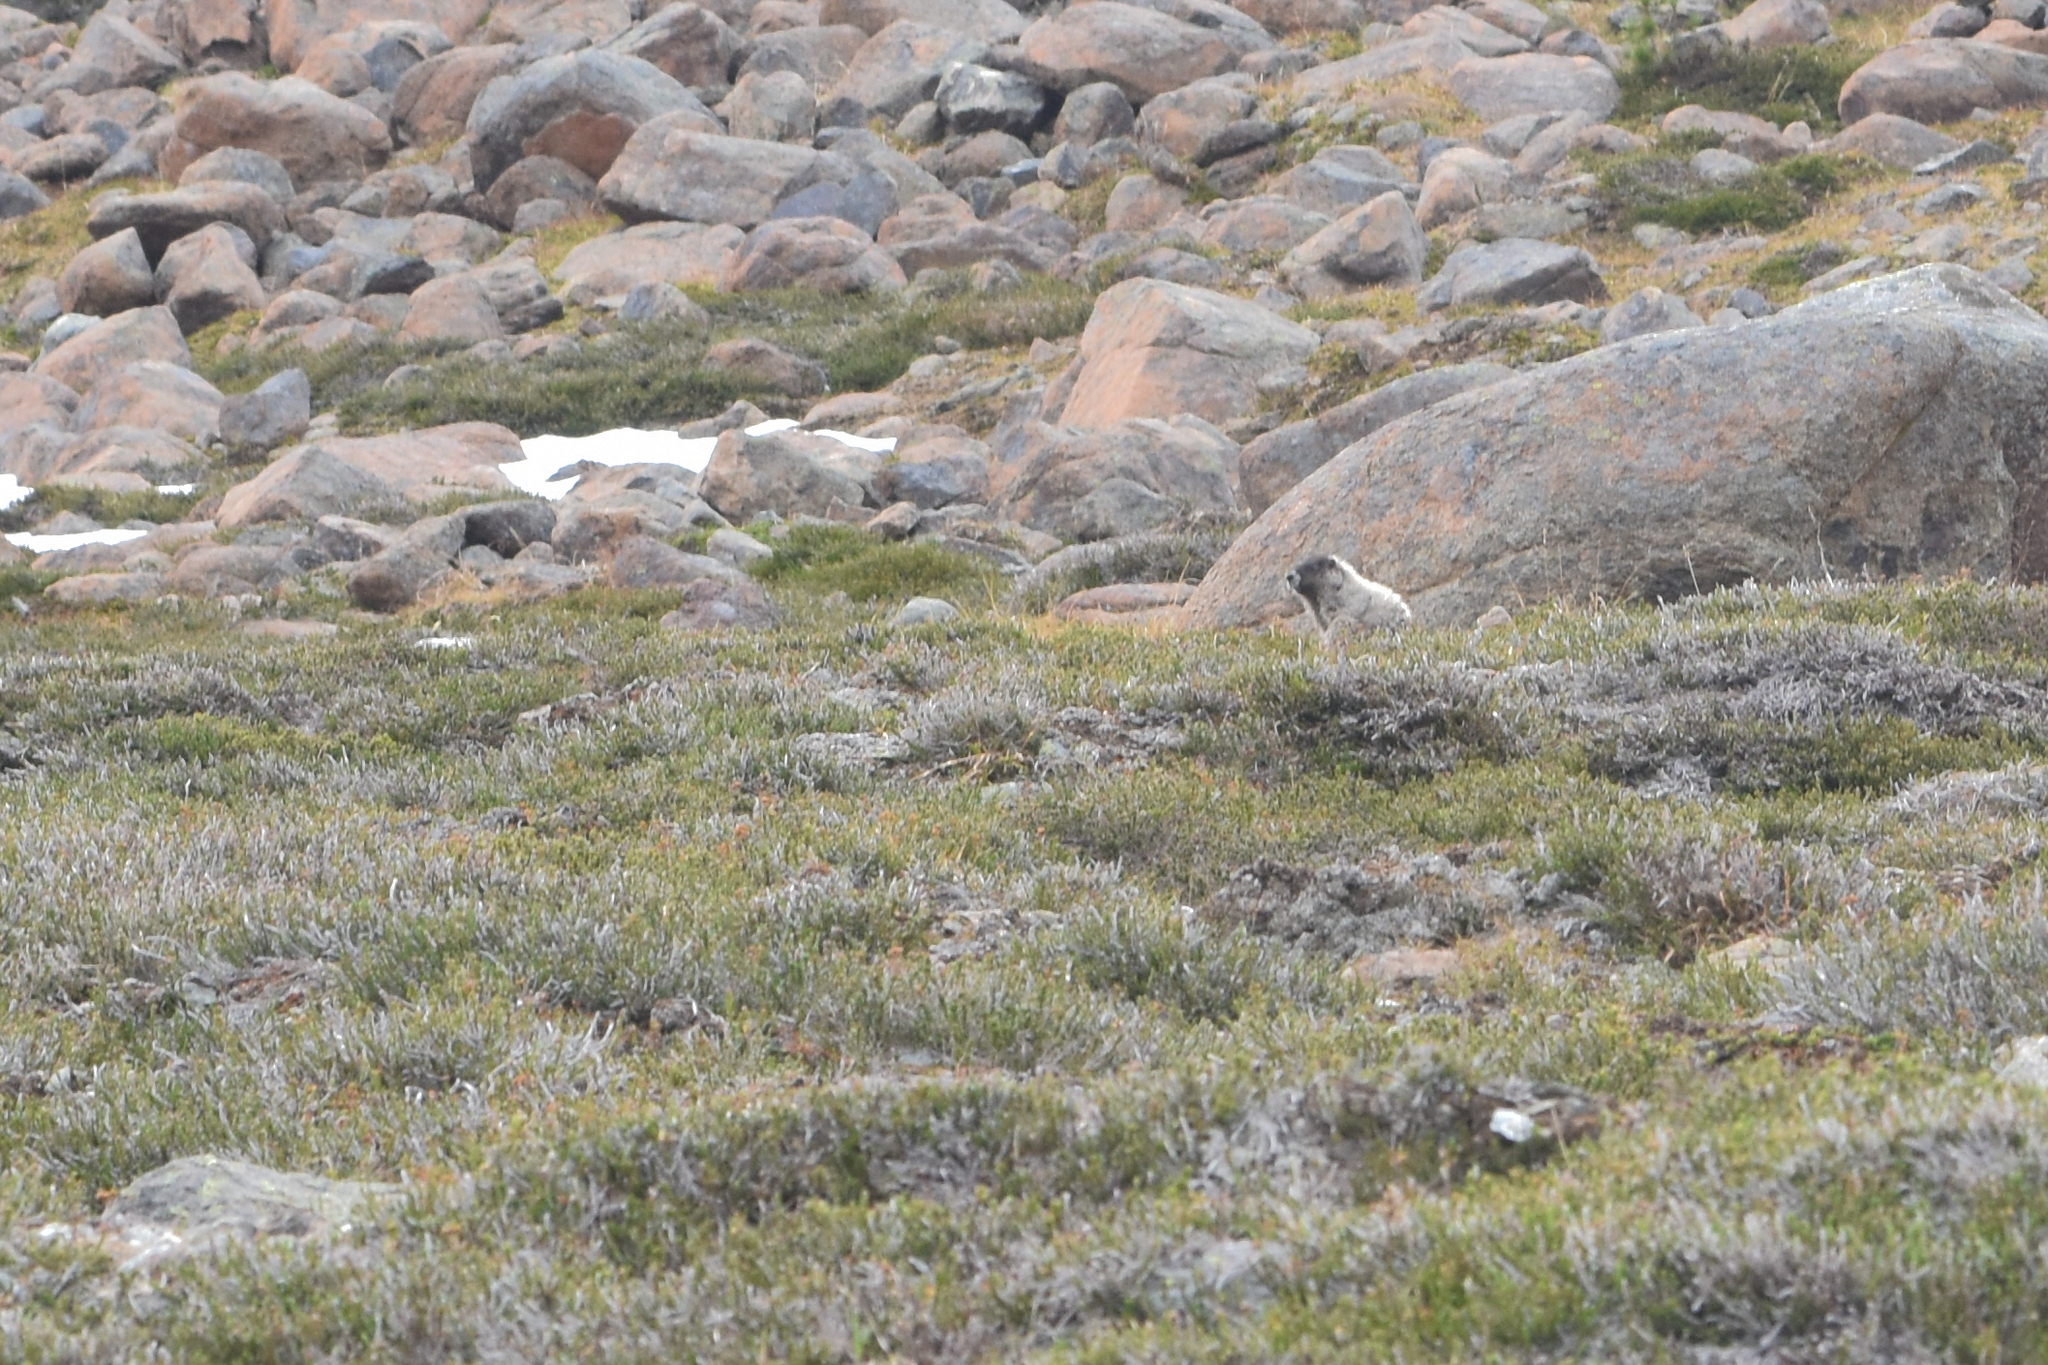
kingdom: Animalia
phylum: Chordata
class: Mammalia
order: Rodentia
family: Sciuridae
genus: Marmota
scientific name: Marmota caligata
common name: Hoary marmot
